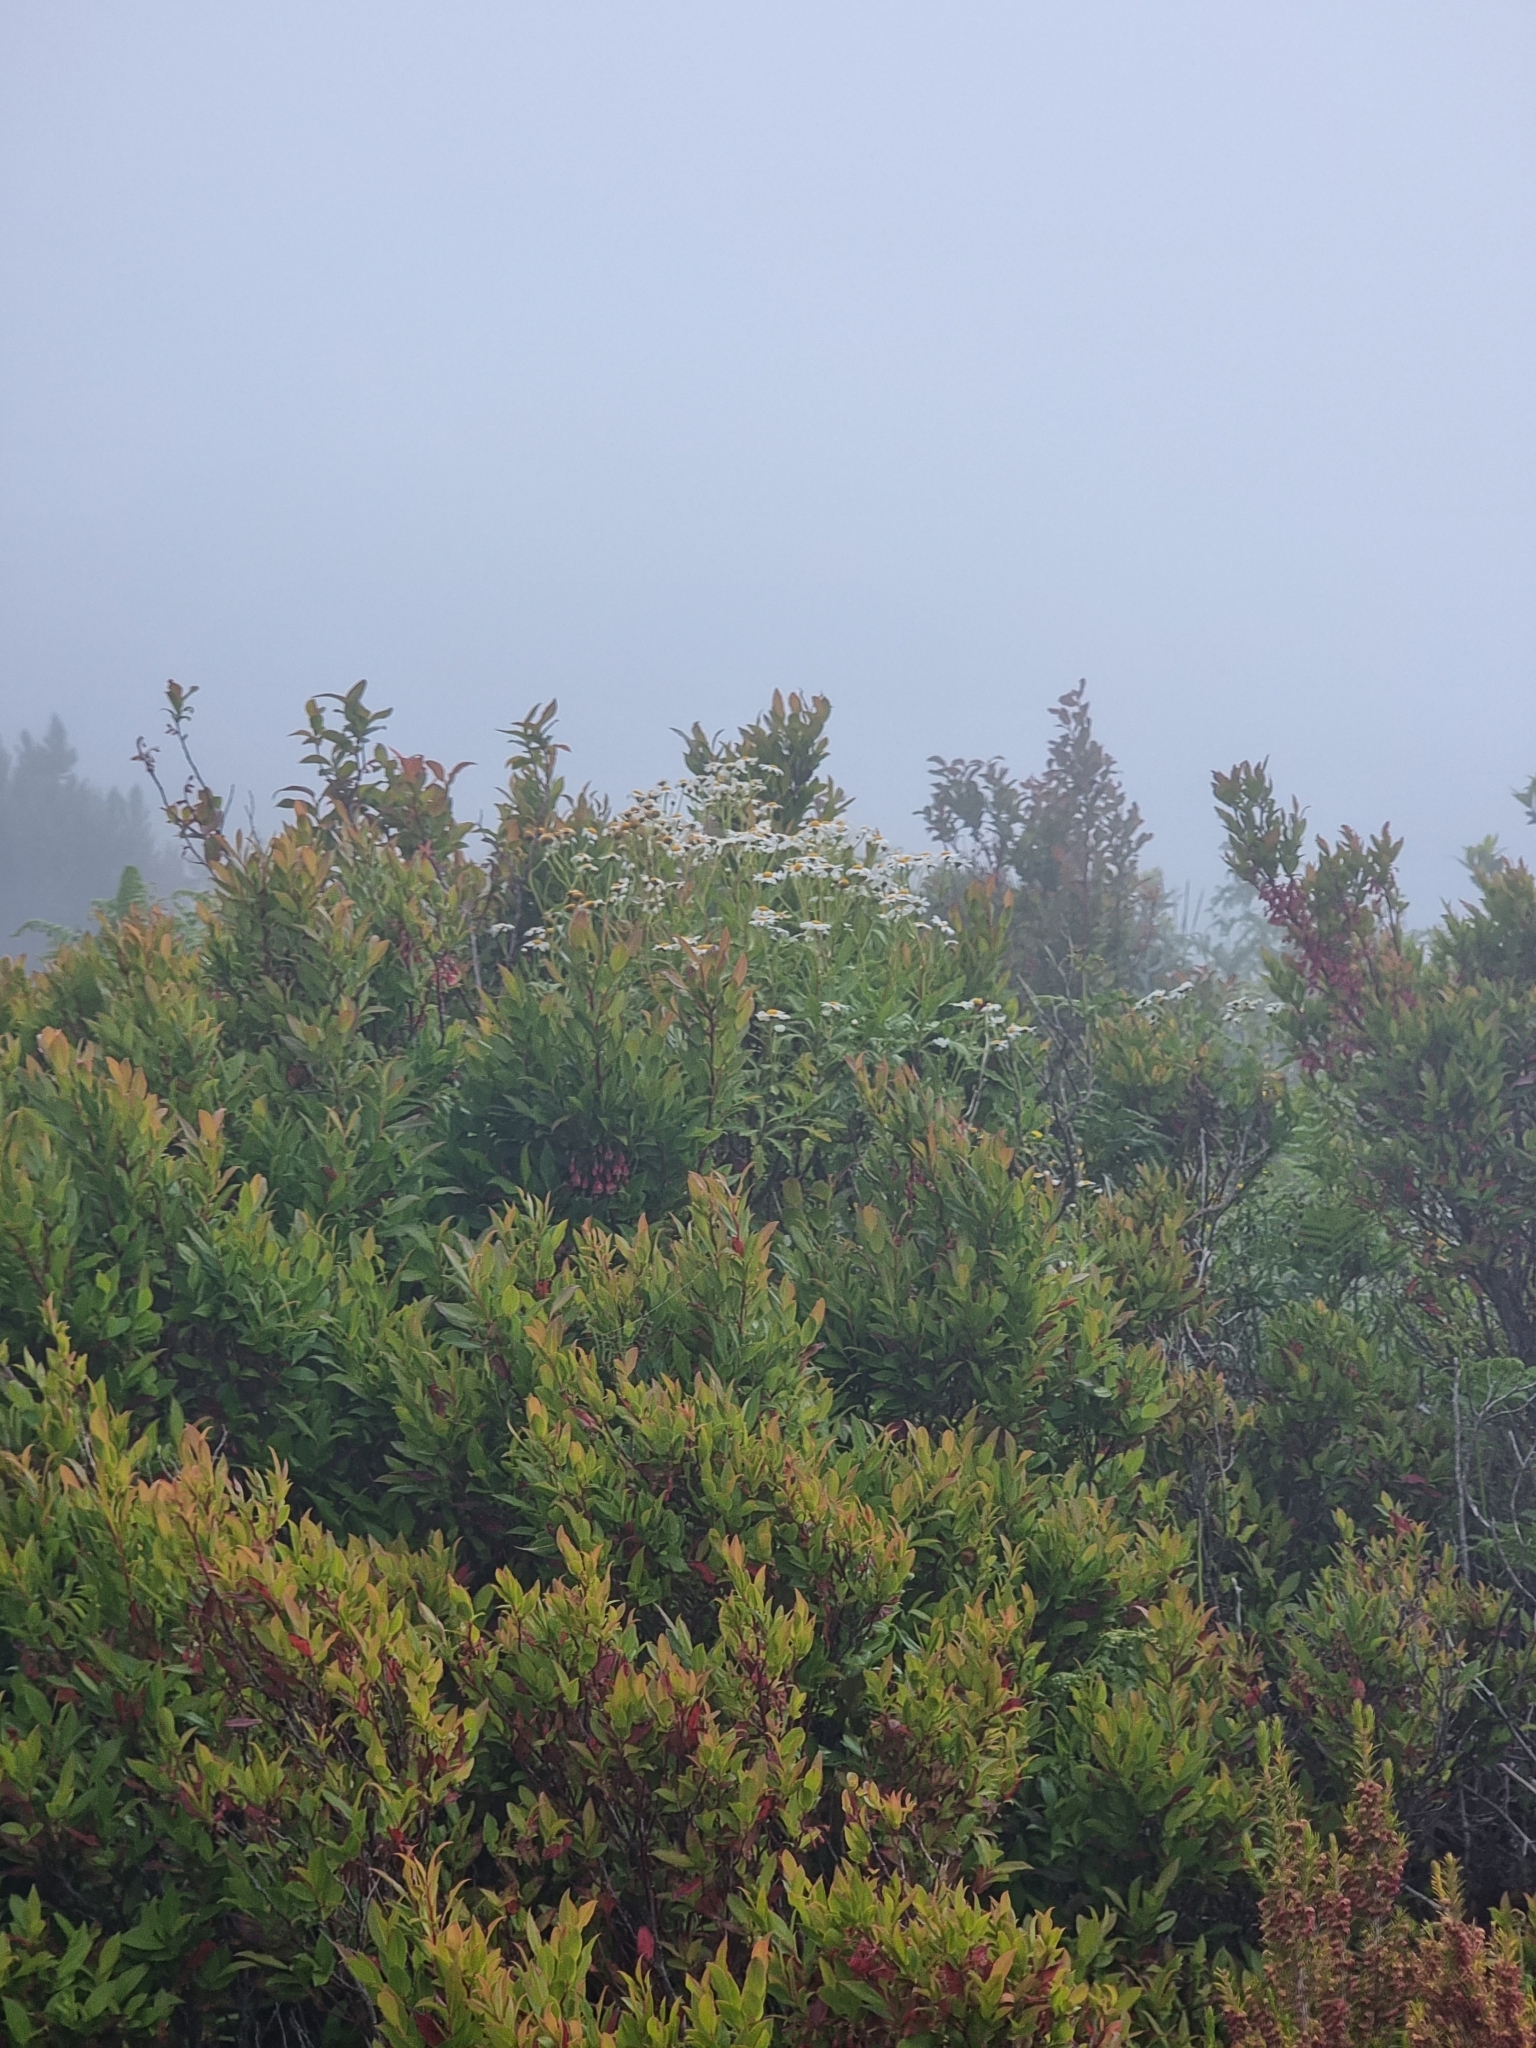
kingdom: Plantae
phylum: Tracheophyta
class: Magnoliopsida
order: Asterales
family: Asteraceae
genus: Argyranthemum
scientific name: Argyranthemum pinnatifidum
